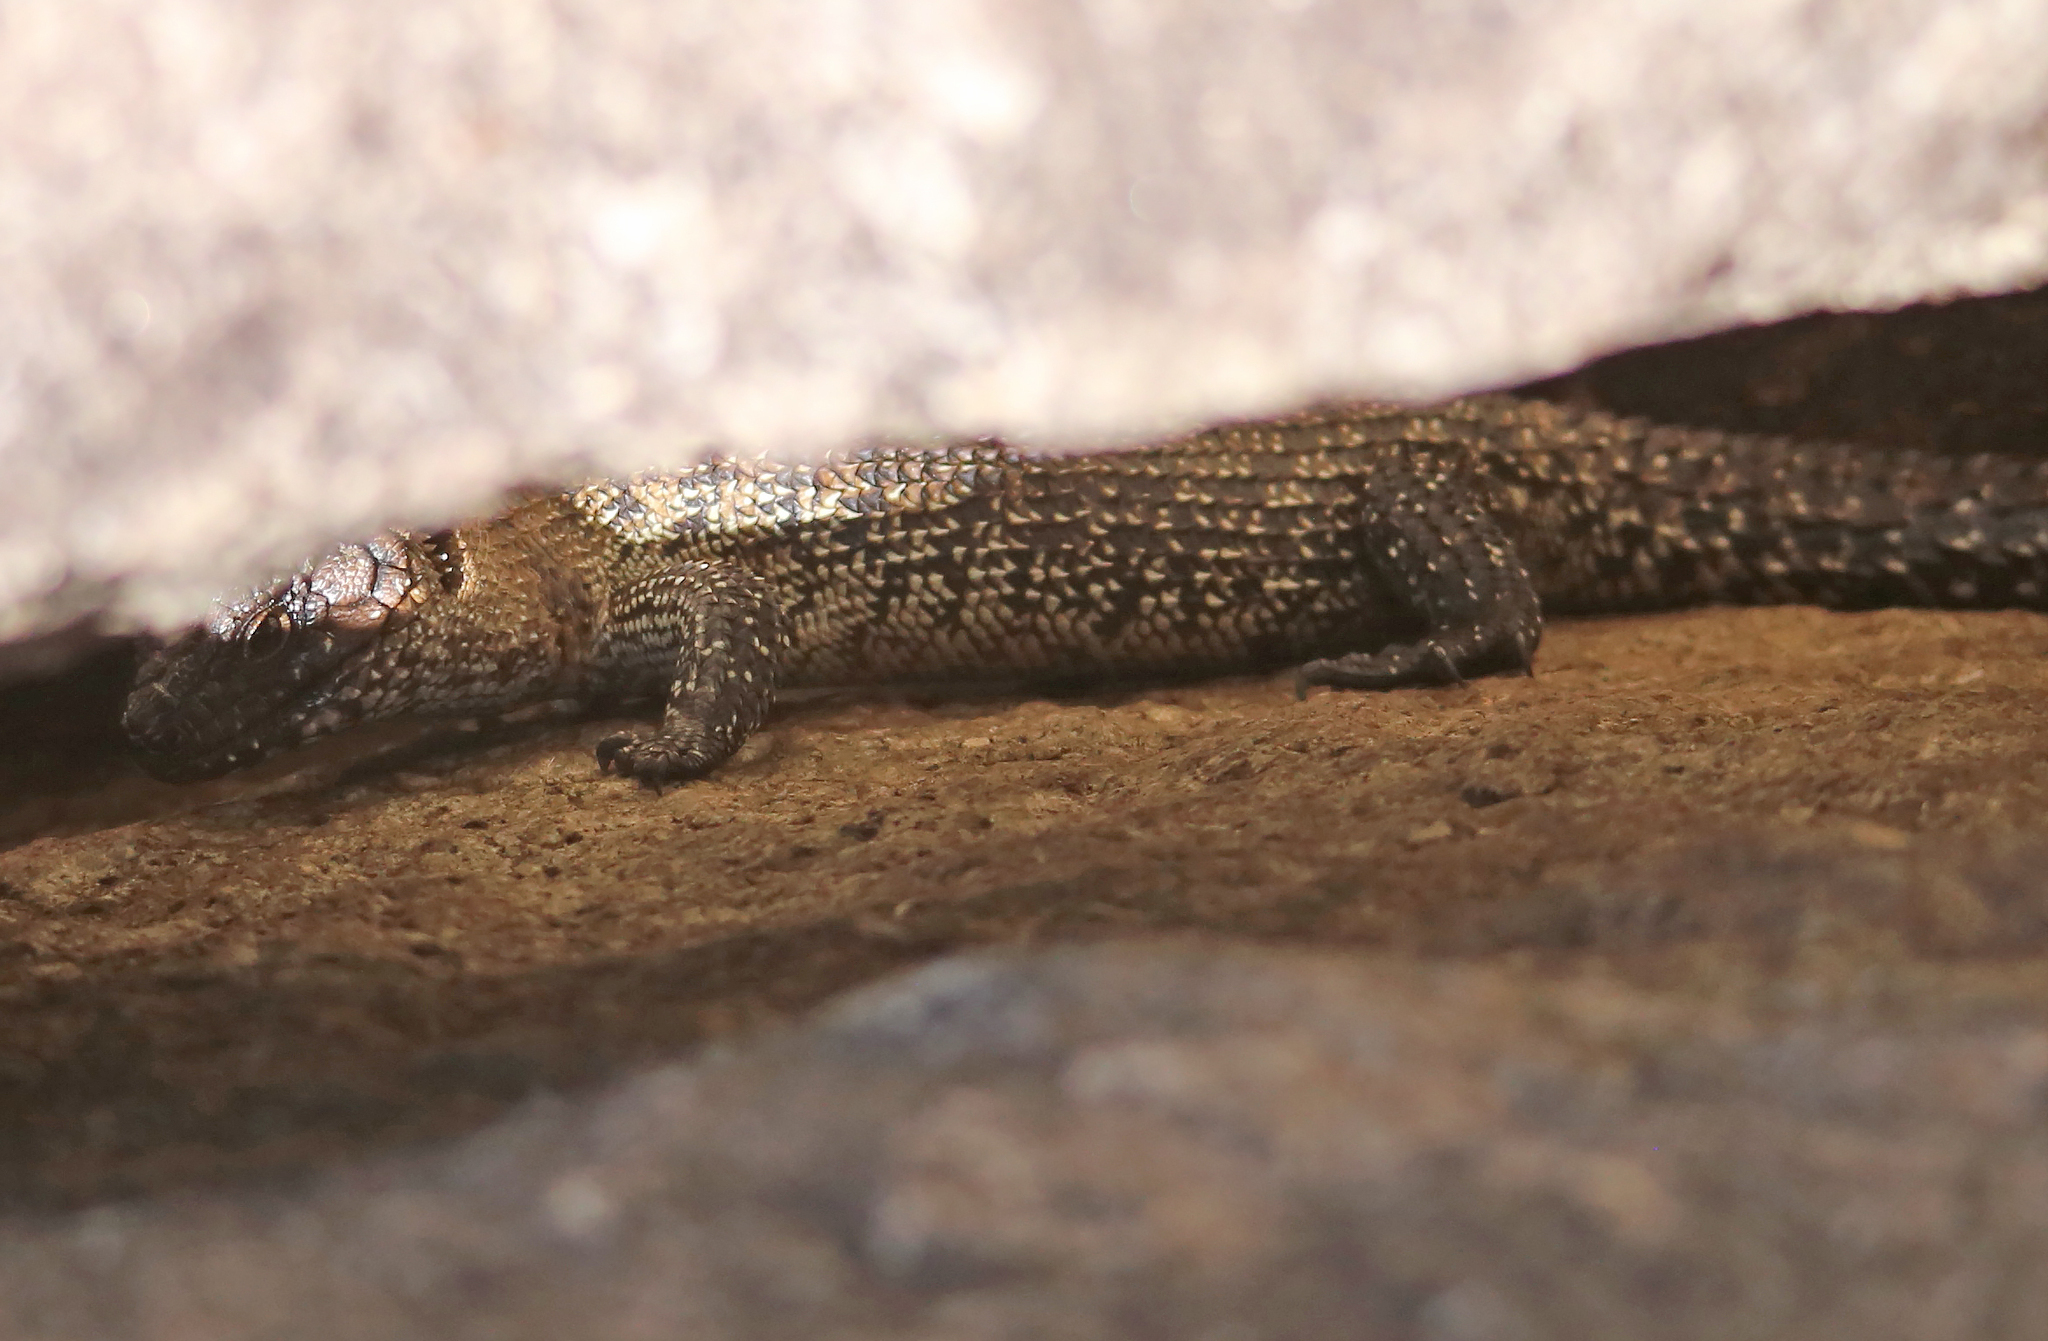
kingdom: Animalia
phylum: Chordata
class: Squamata
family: Scincidae
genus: Egernia
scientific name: Egernia cunninghami
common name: Cunningham's skink
